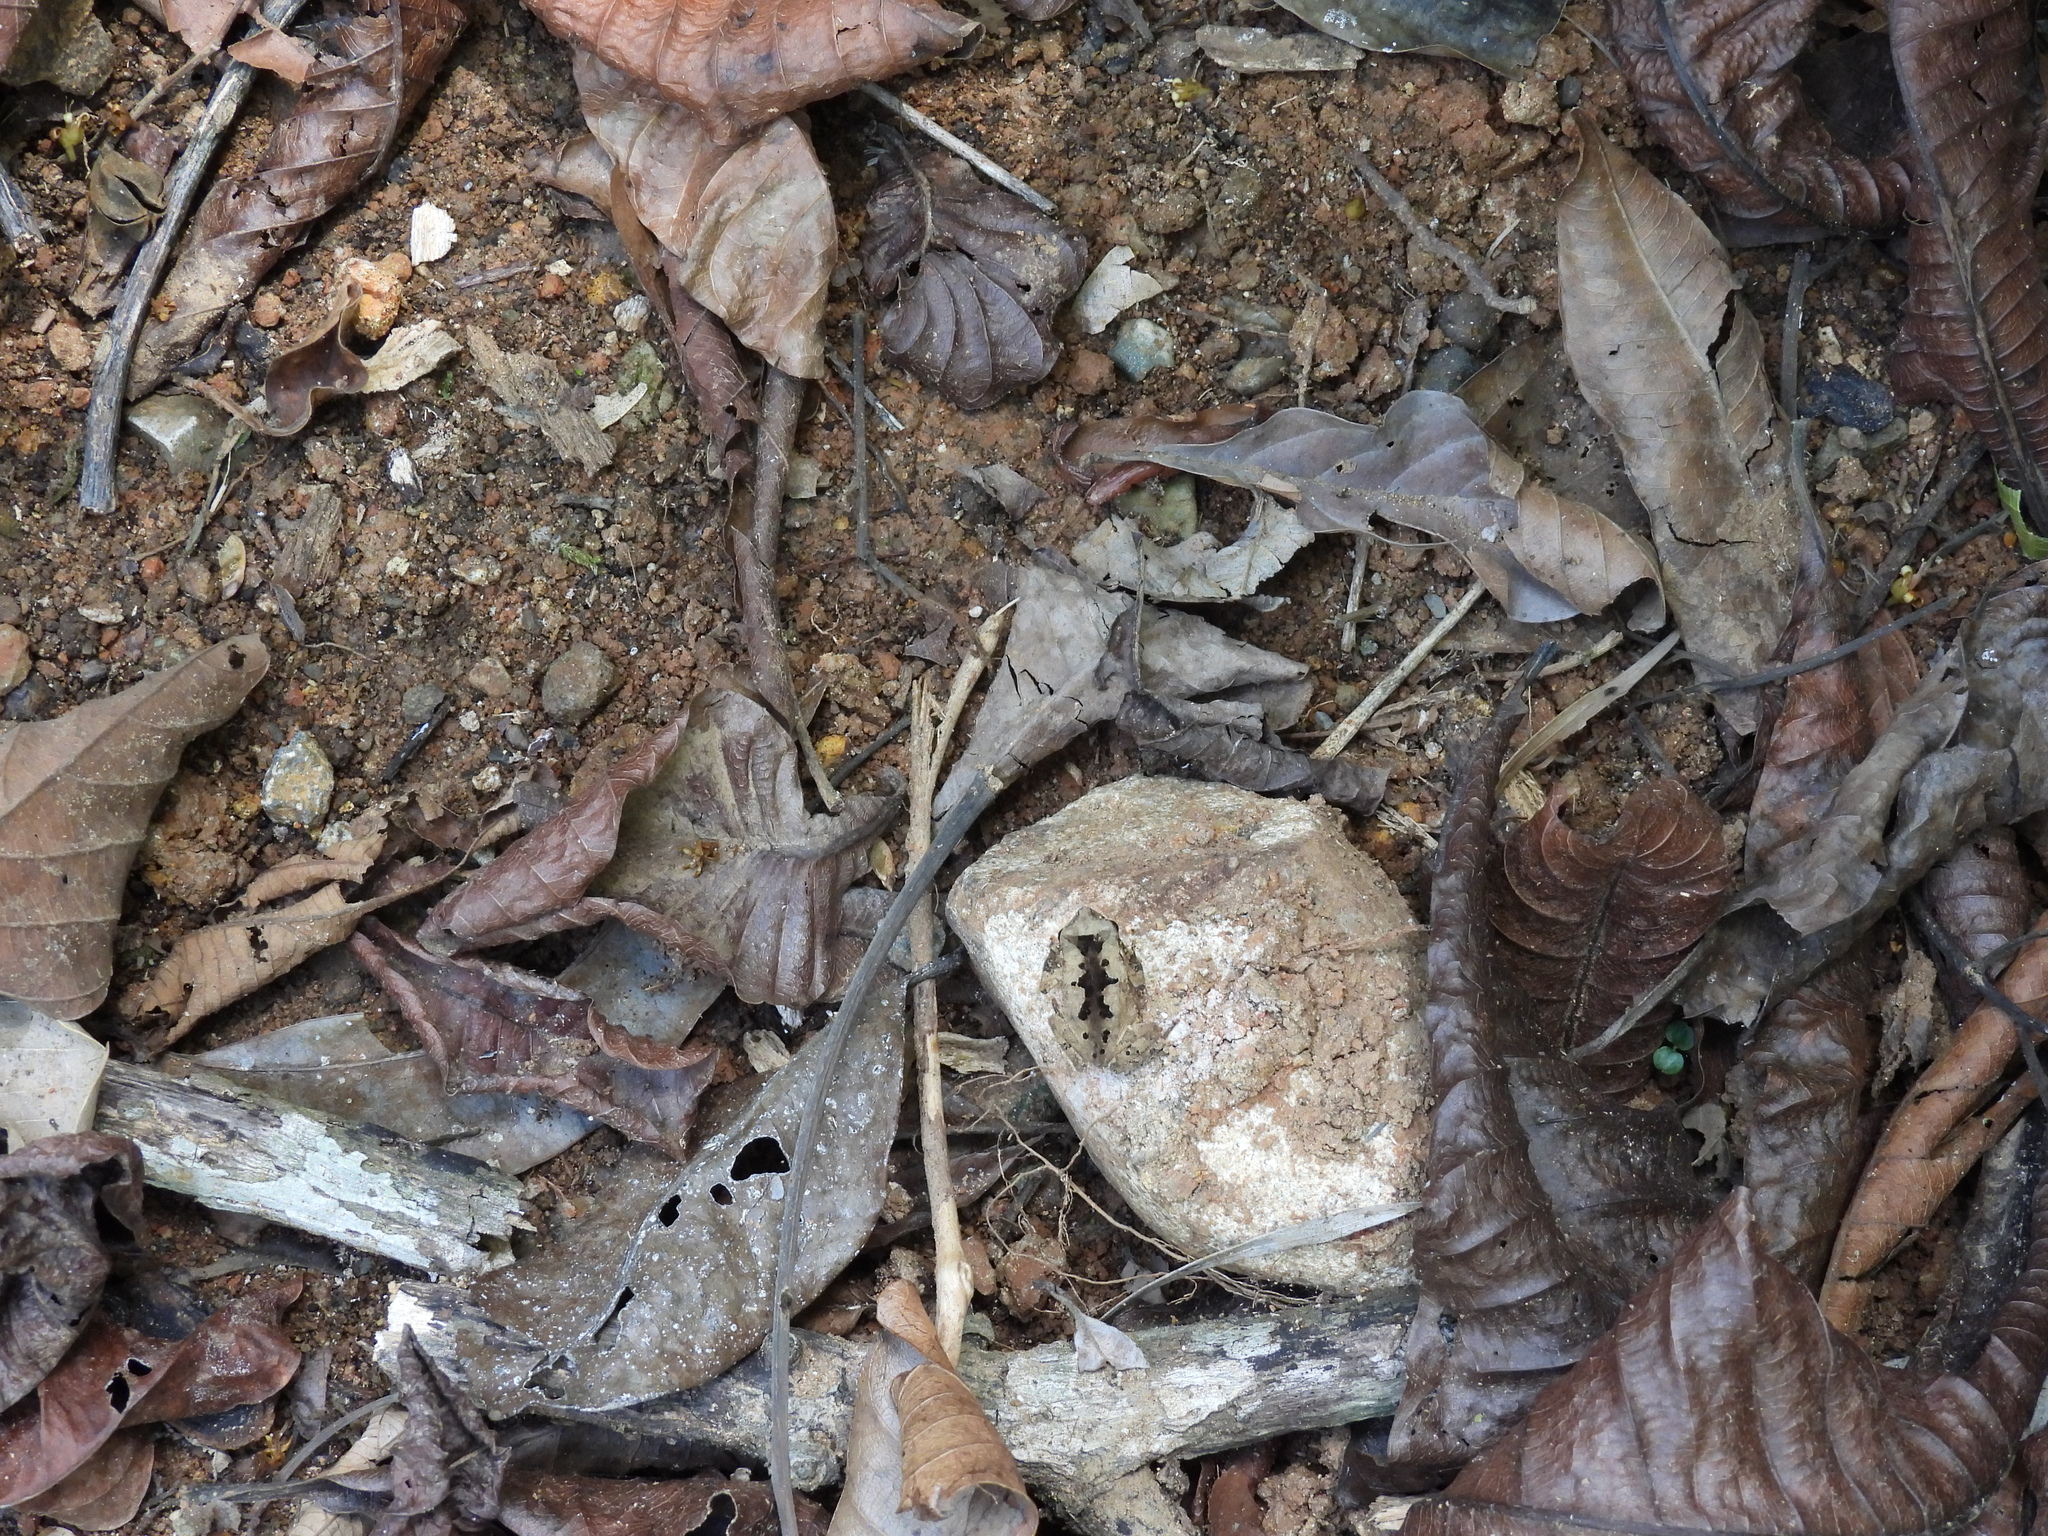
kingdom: Animalia
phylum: Chordata
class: Amphibia
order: Anura
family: Bufonidae
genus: Rhinella
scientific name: Rhinella alata
